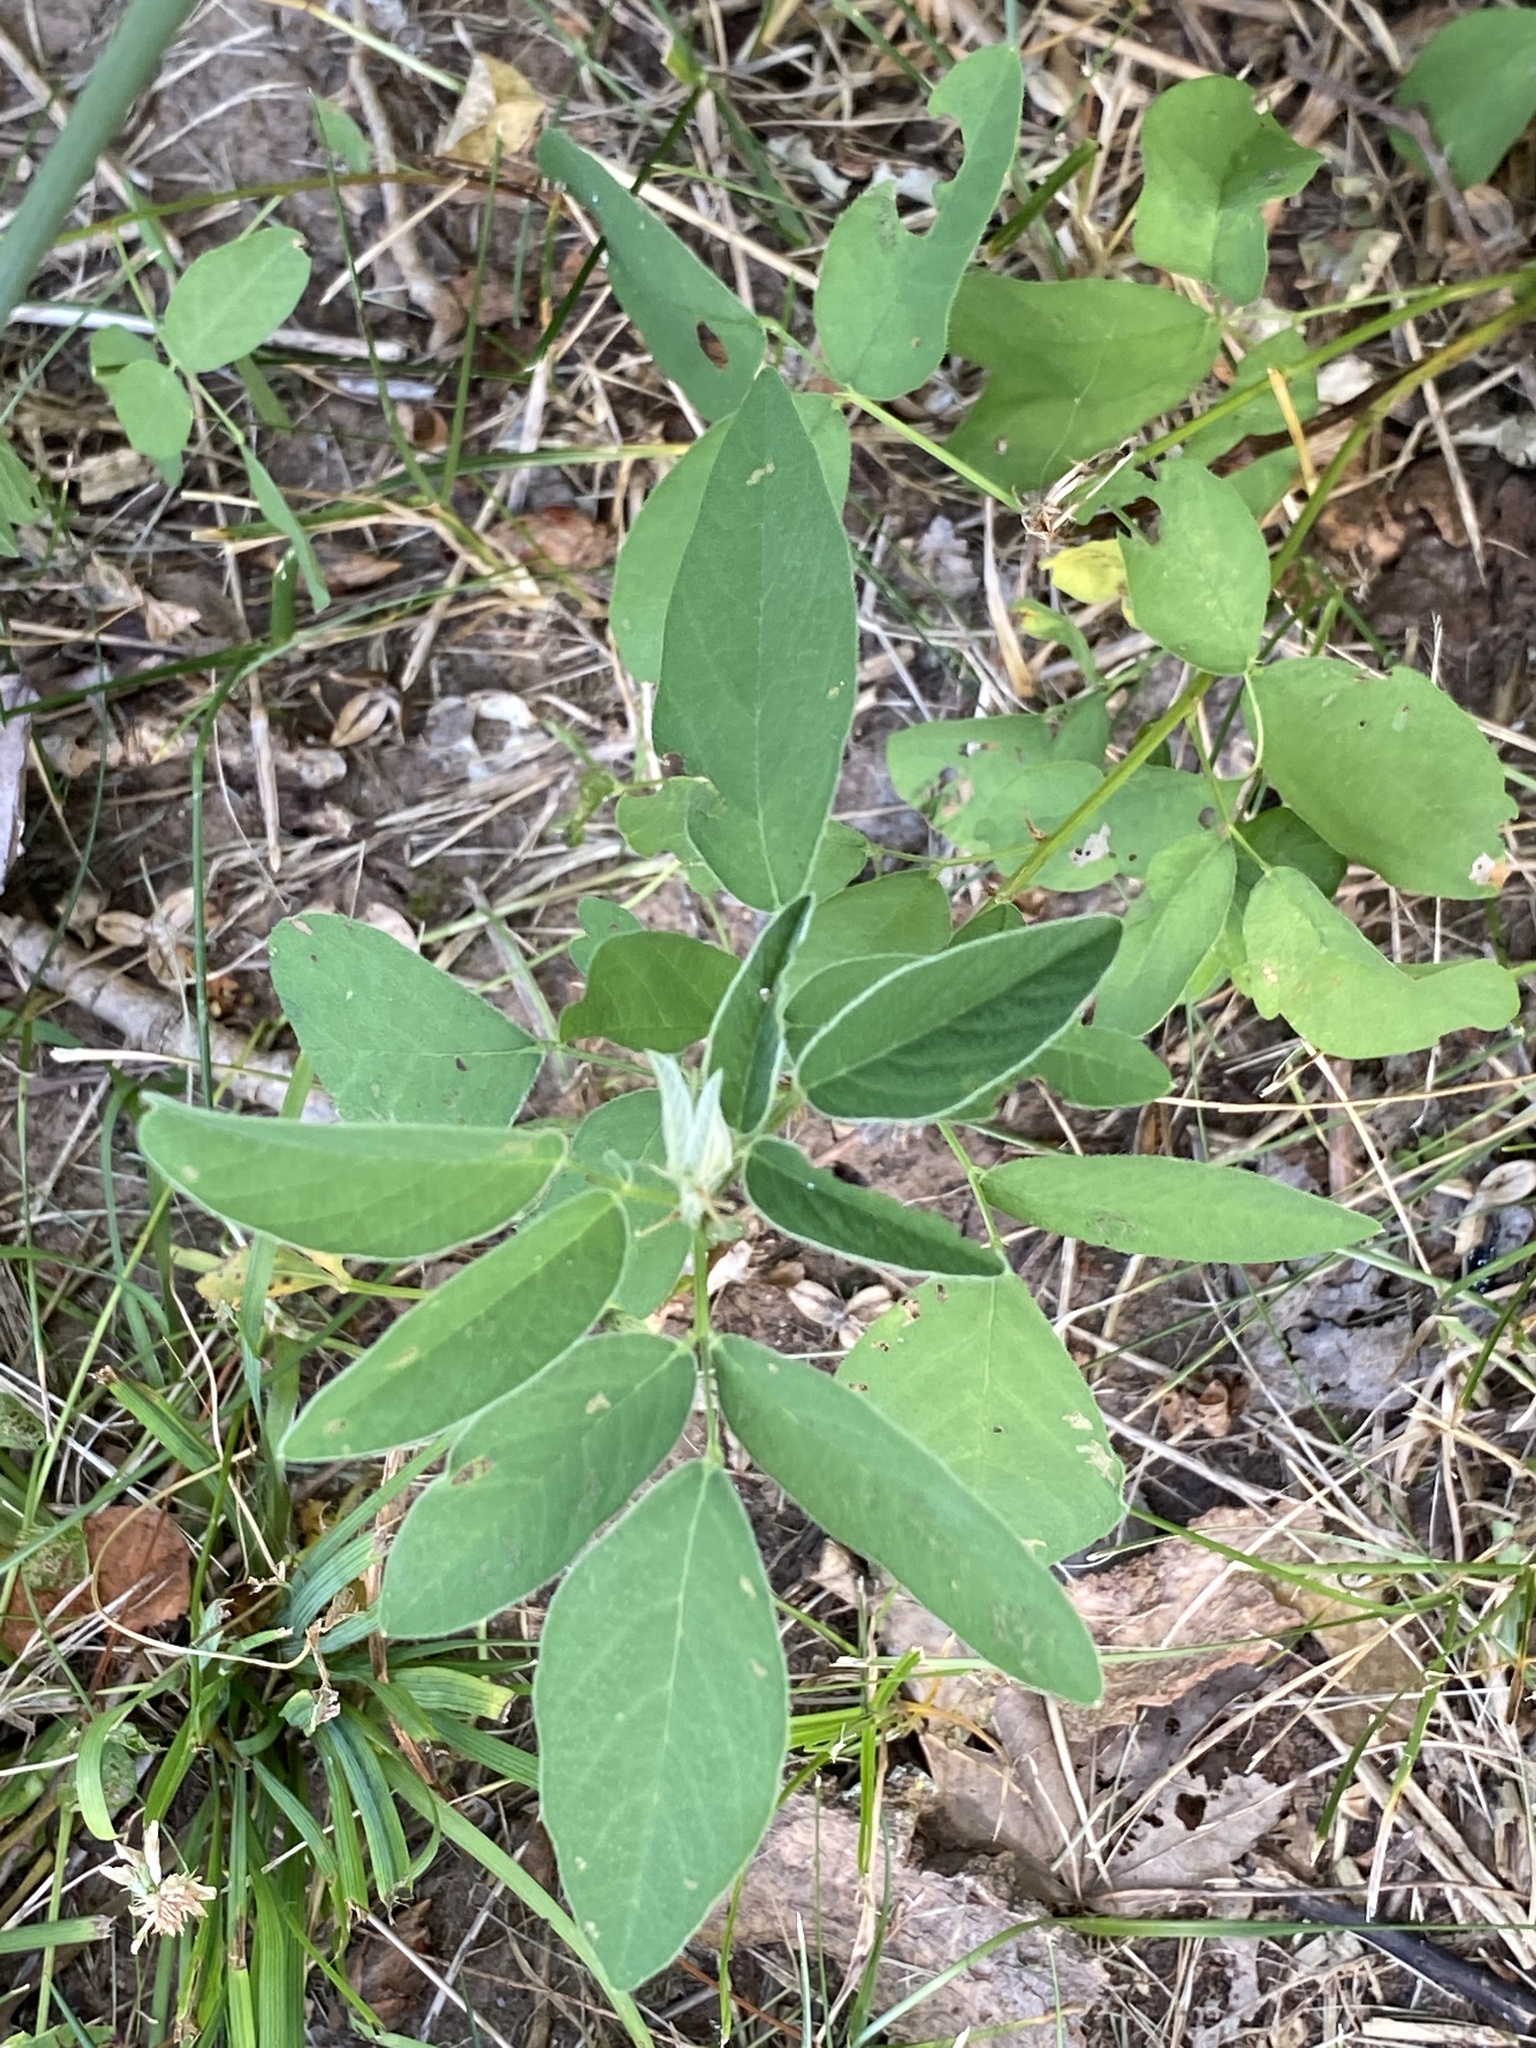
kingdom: Plantae
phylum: Tracheophyta
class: Magnoliopsida
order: Fabales
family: Fabaceae
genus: Desmodium
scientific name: Desmodium canadense
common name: Canada tick-trefoil
